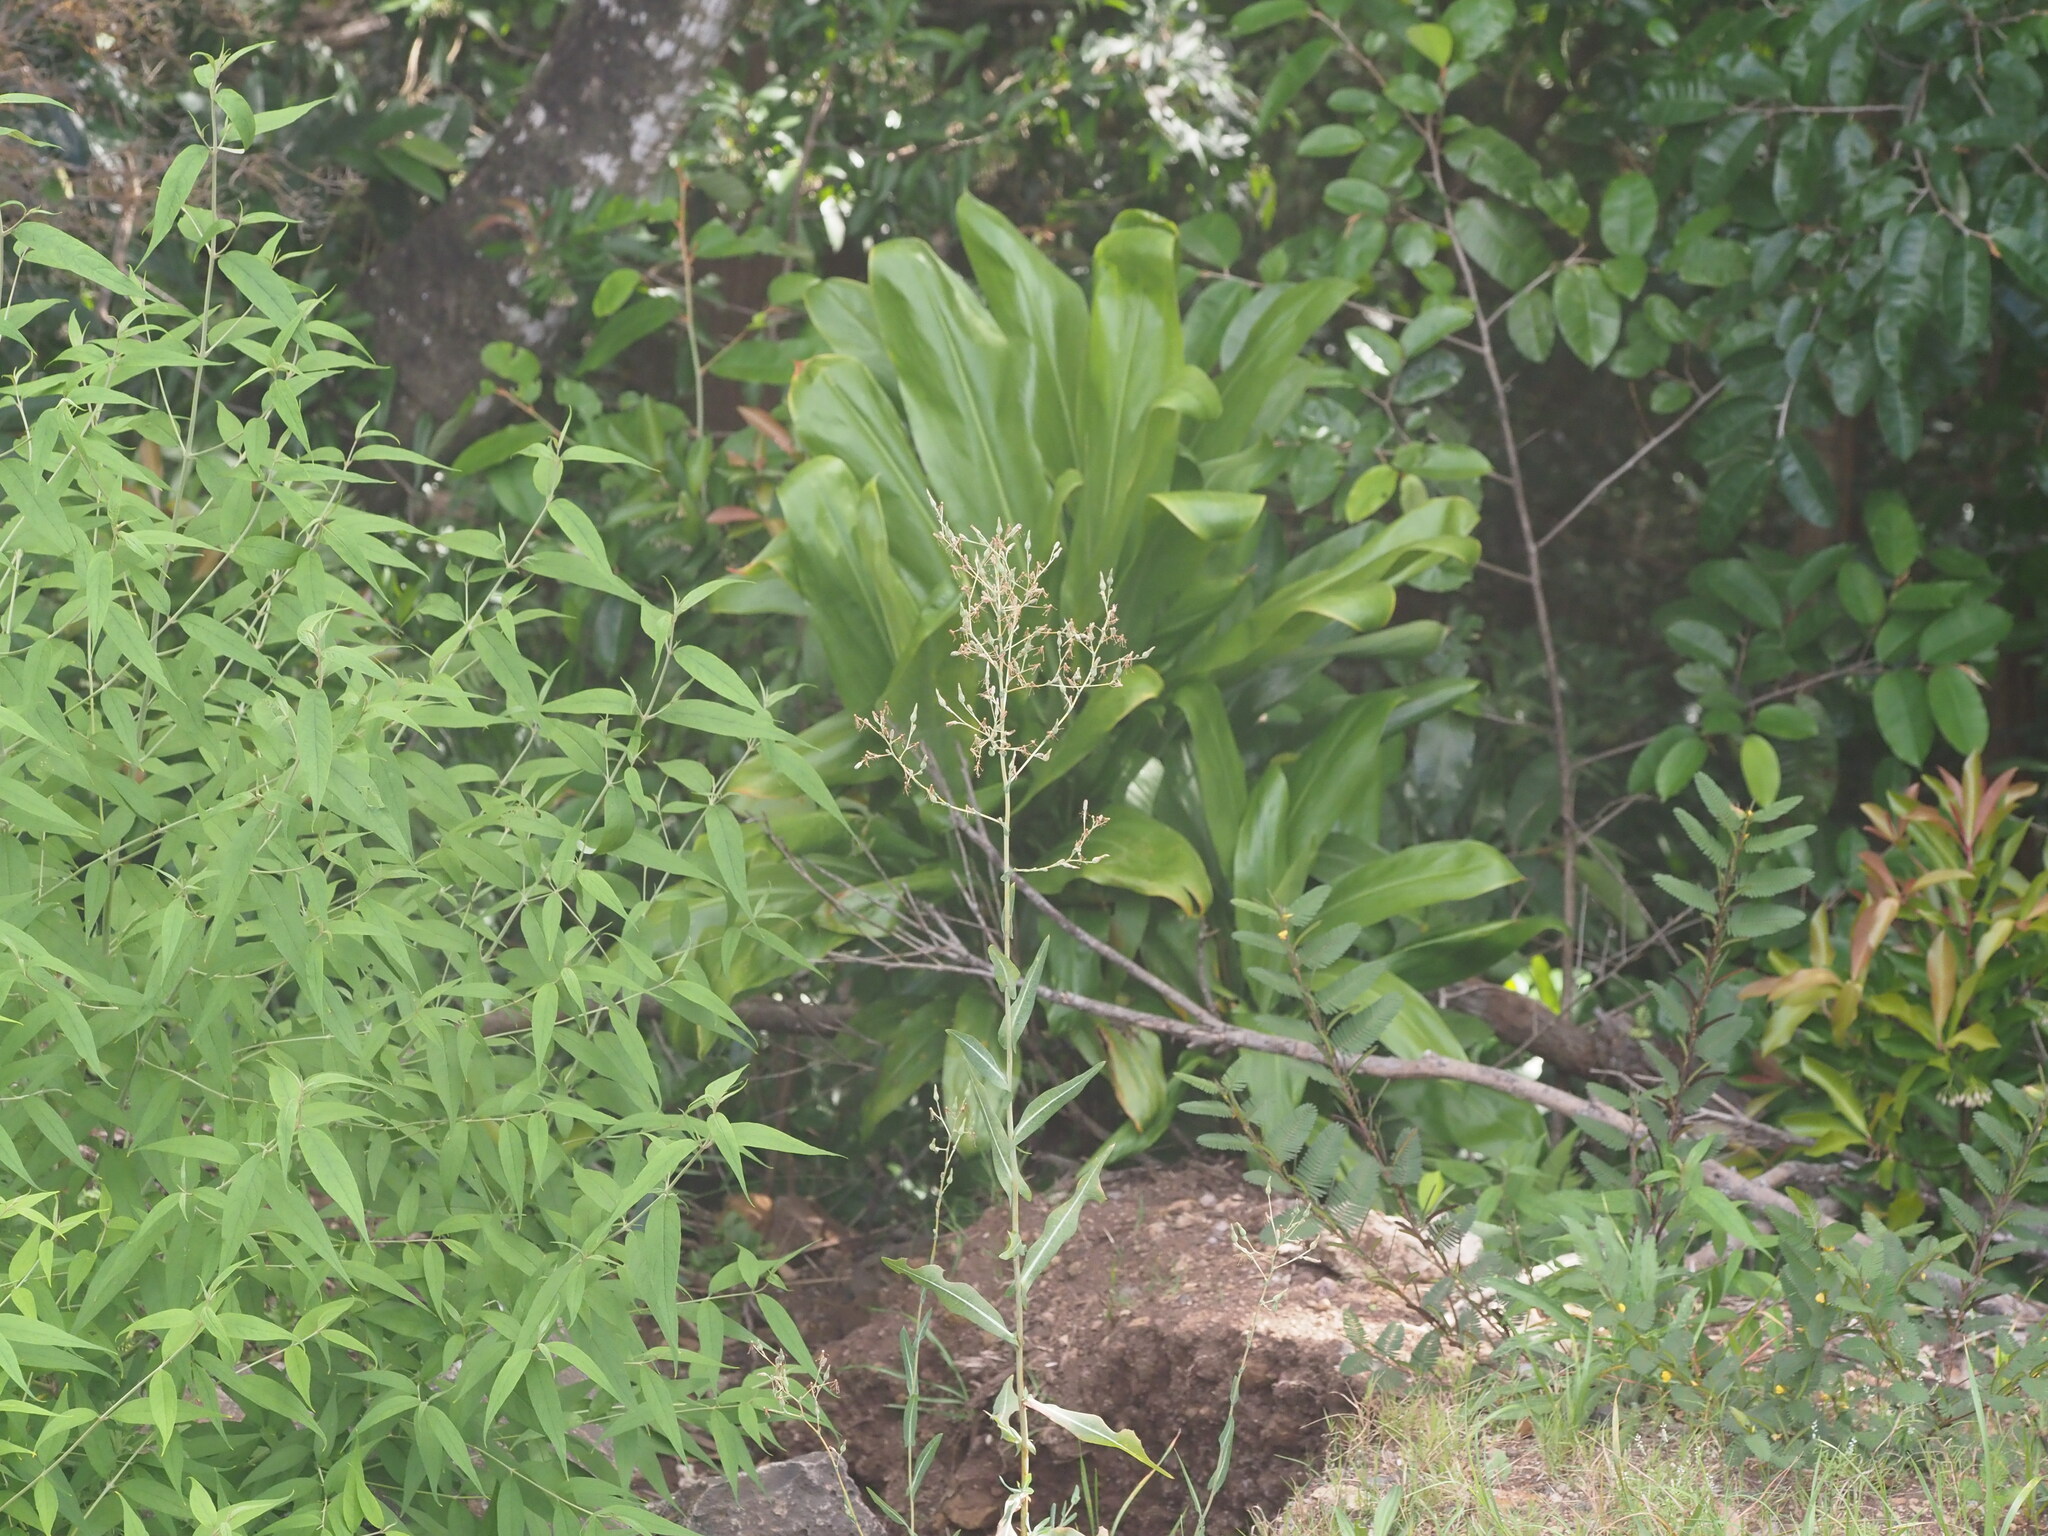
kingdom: Plantae
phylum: Tracheophyta
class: Magnoliopsida
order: Asterales
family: Asteraceae
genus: Lactuca
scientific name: Lactuca serriola
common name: Prickly lettuce
